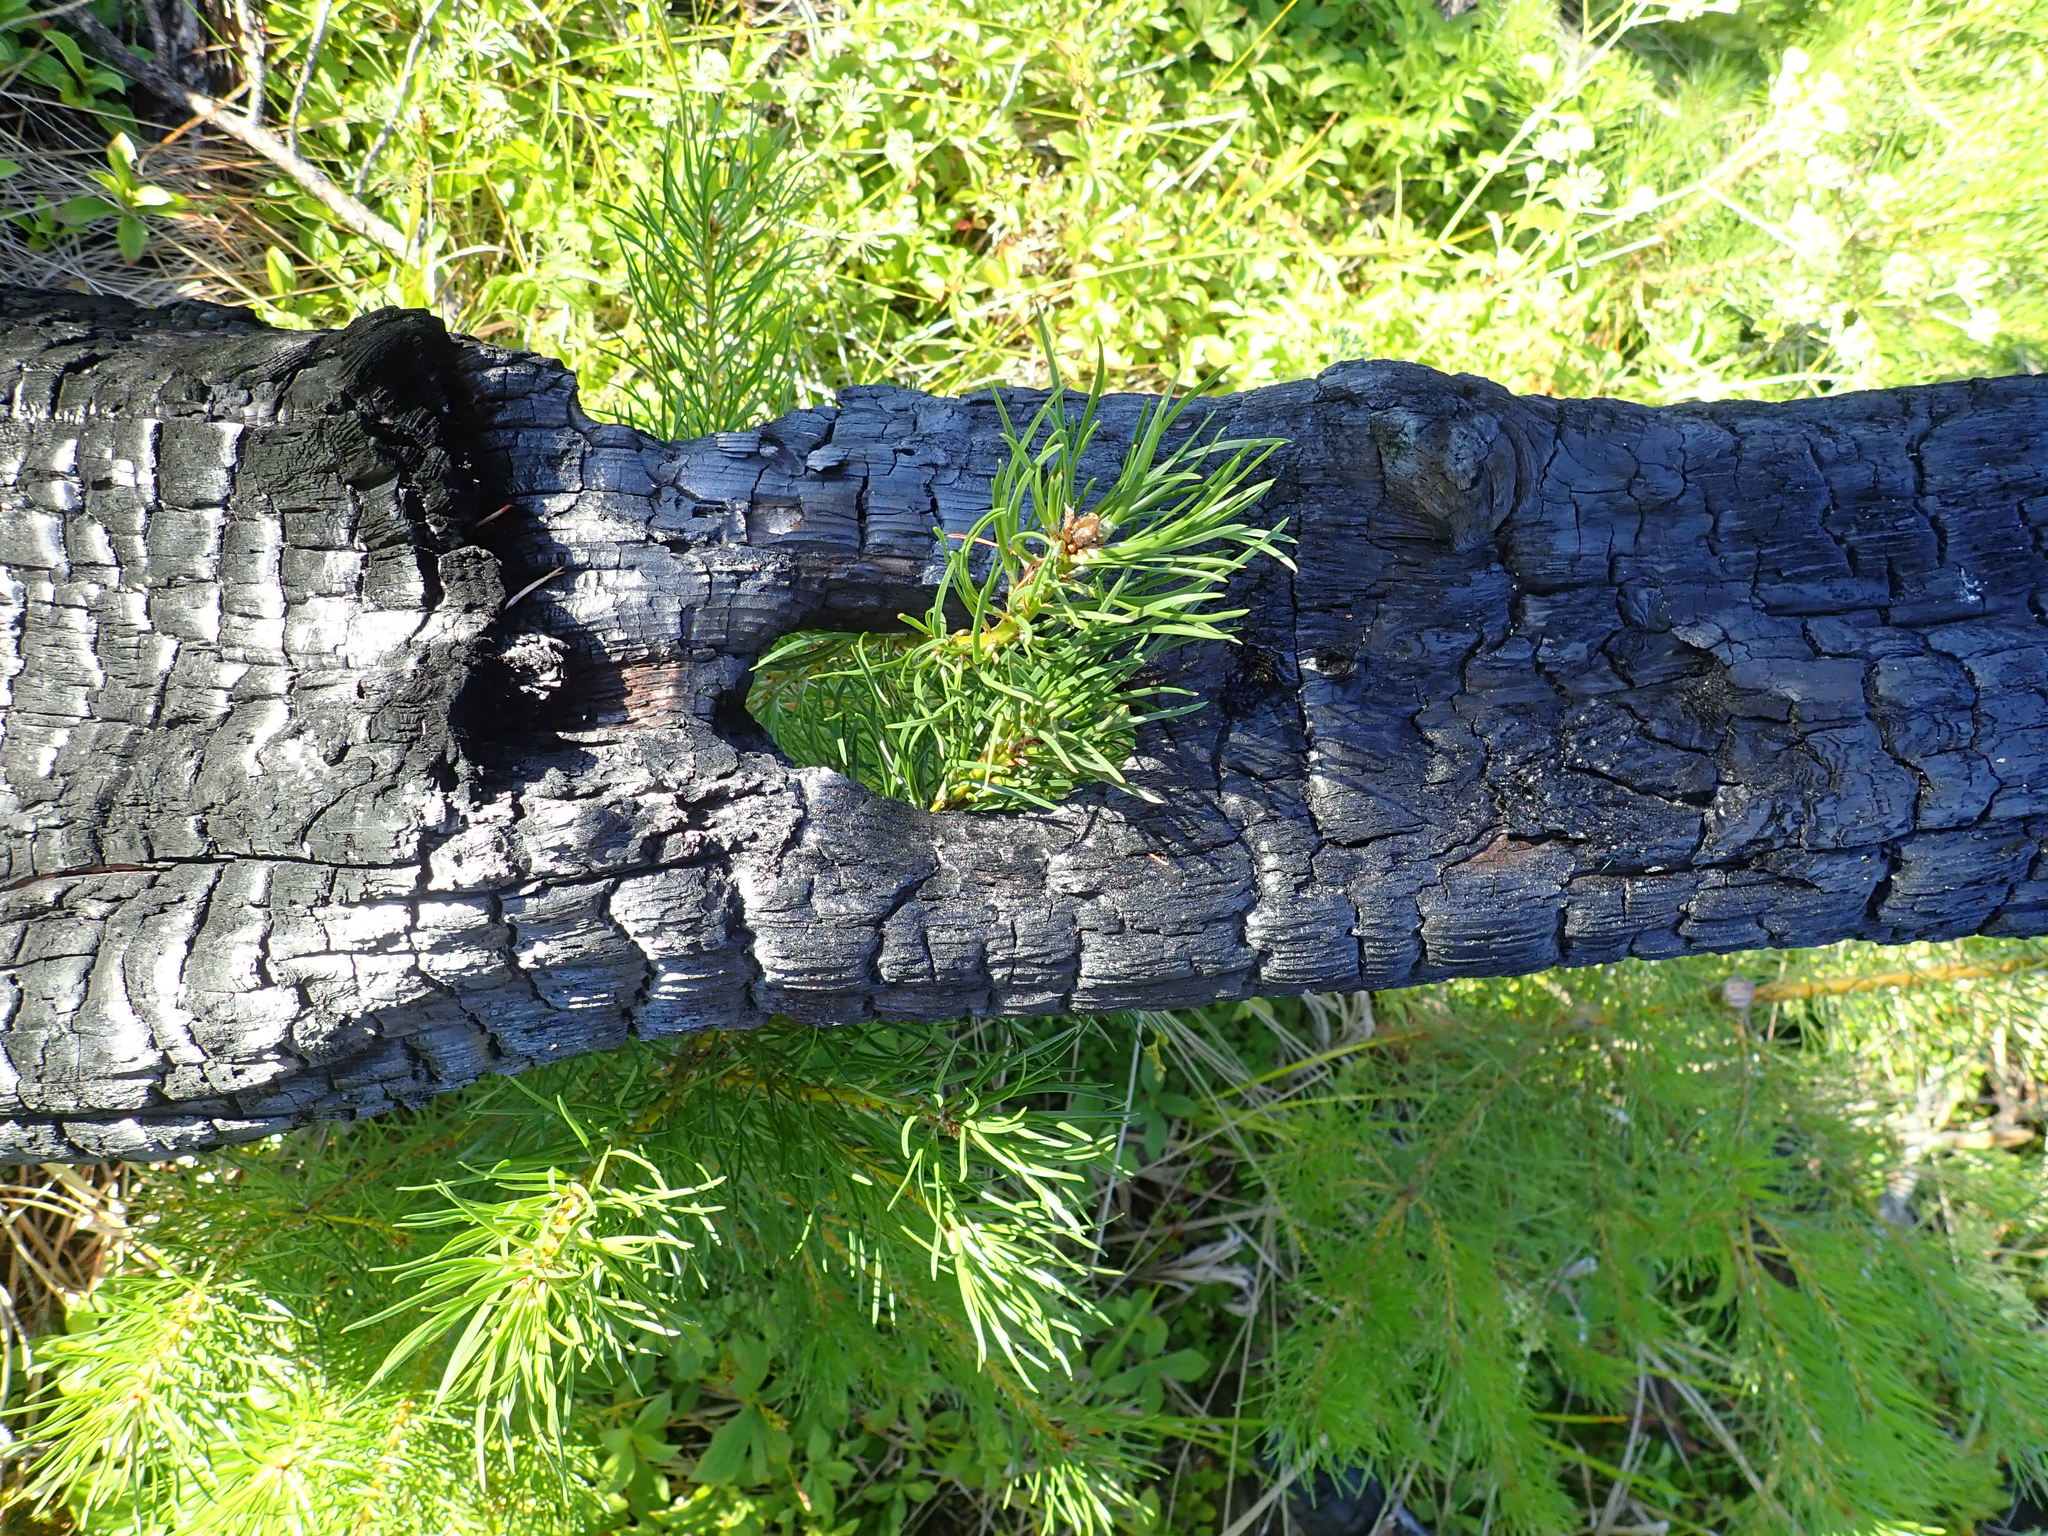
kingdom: Plantae
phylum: Tracheophyta
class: Pinopsida
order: Pinales
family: Pinaceae
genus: Pinus
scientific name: Pinus banksiana
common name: Jack pine
